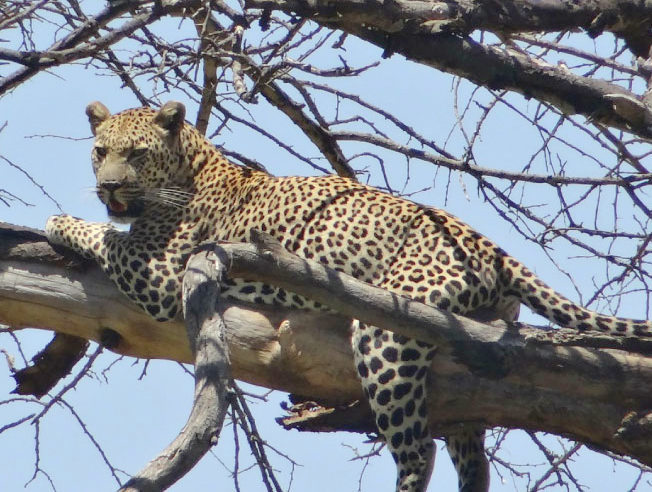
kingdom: Animalia
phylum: Chordata
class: Mammalia
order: Carnivora
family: Felidae
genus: Panthera
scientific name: Panthera pardus
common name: Leopard
